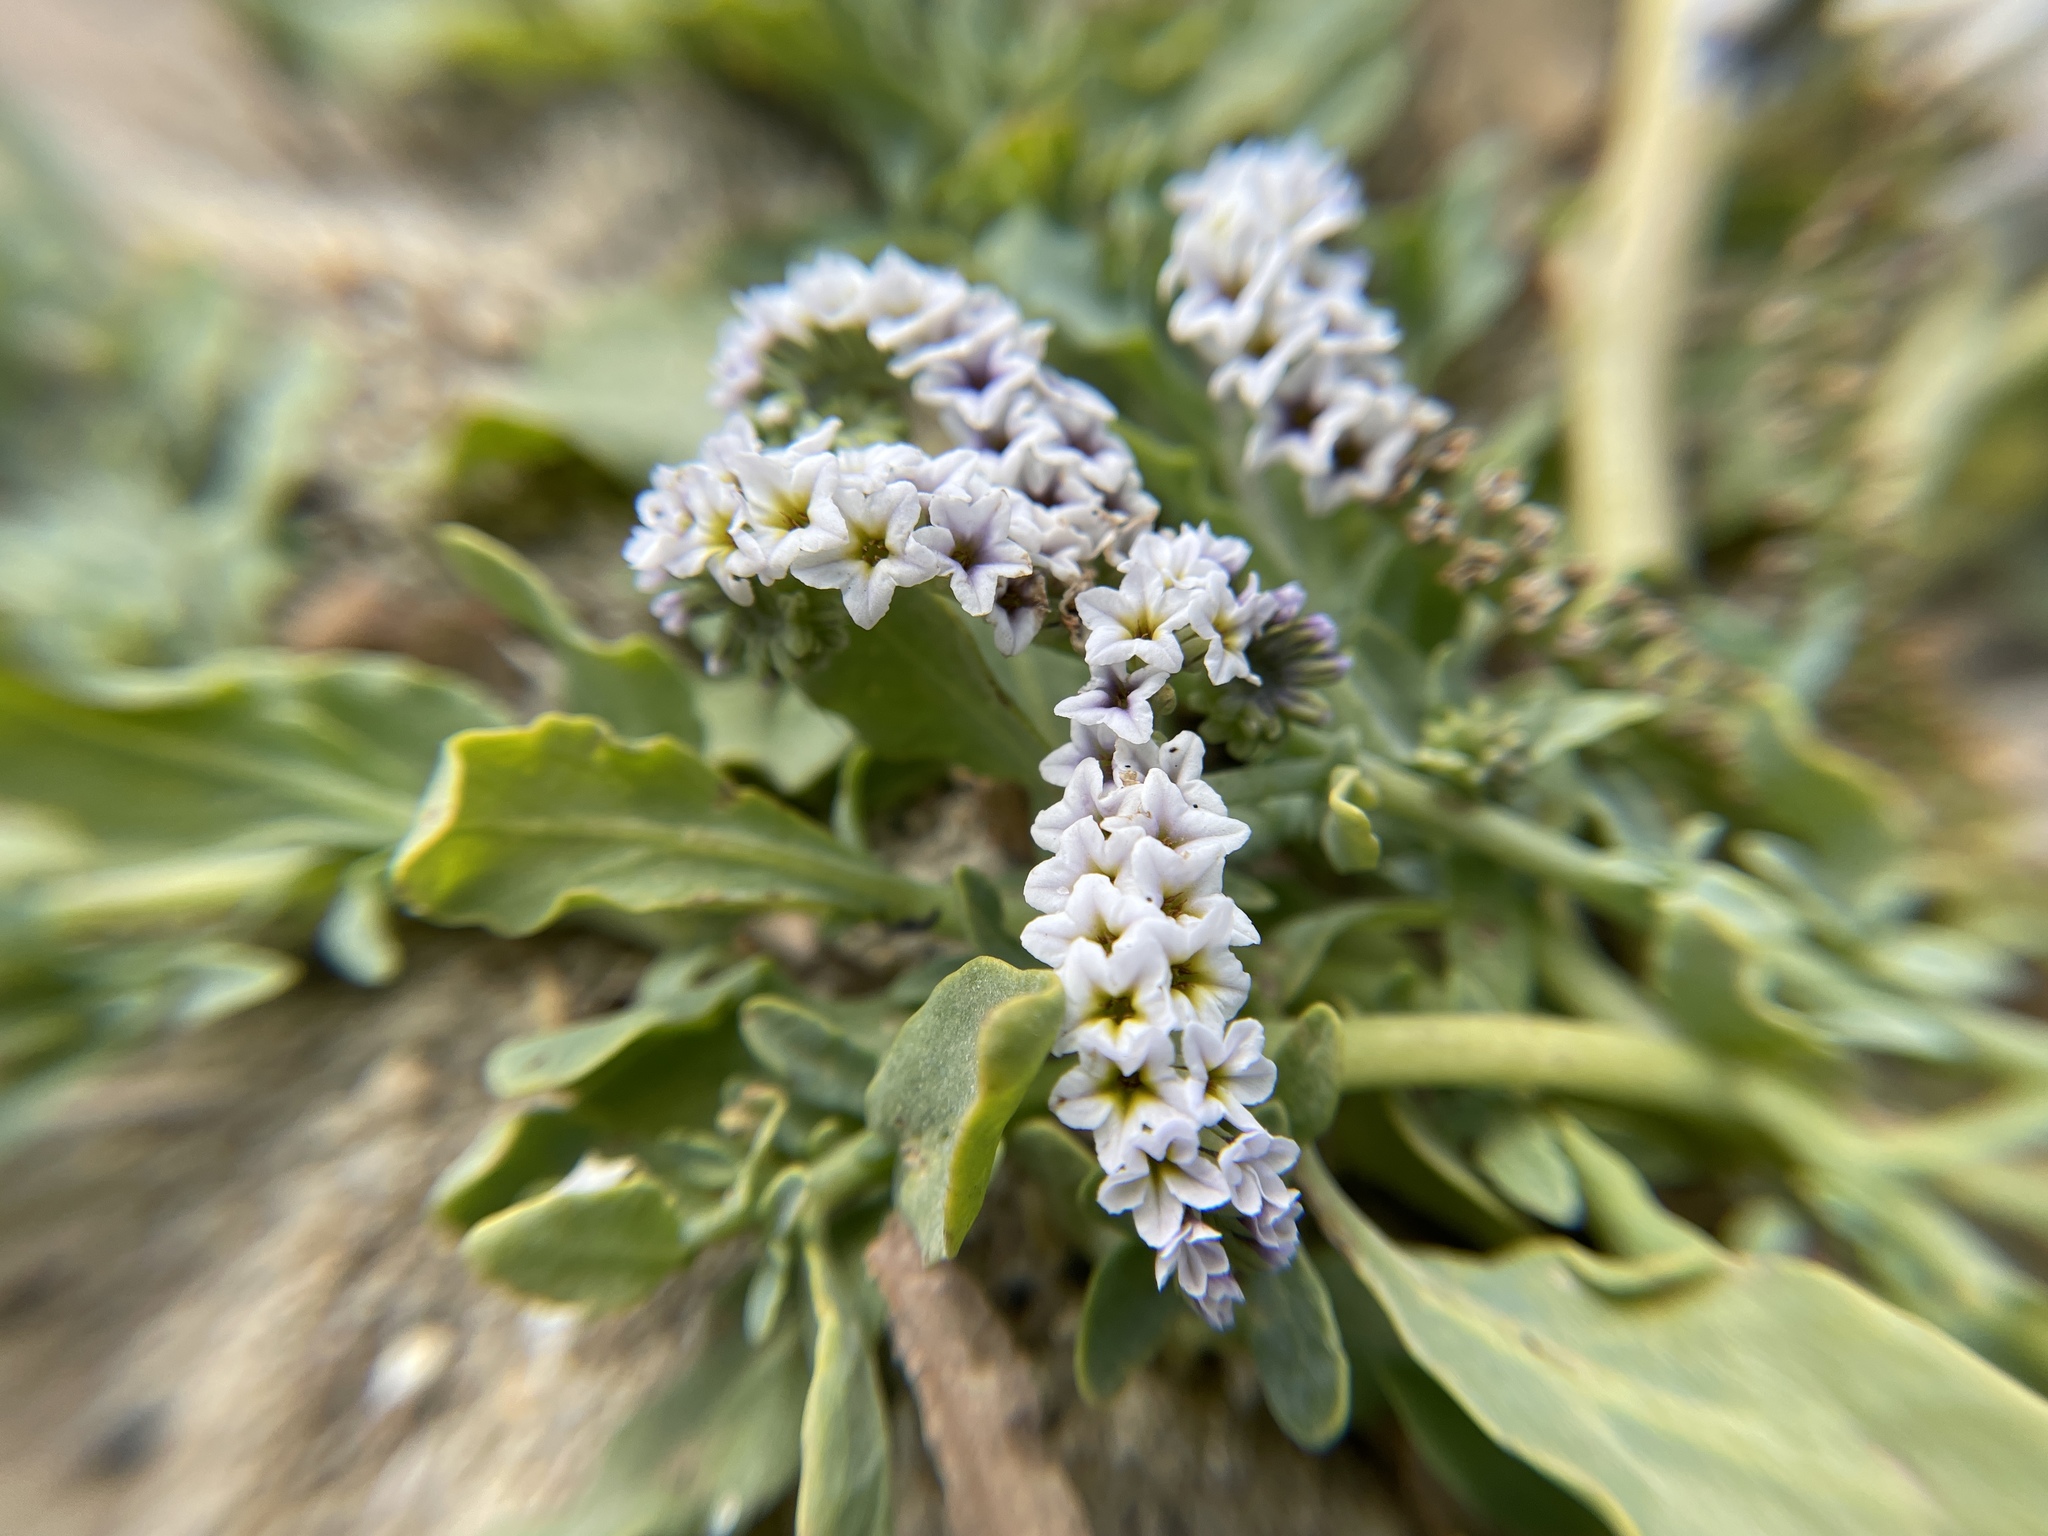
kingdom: Plantae
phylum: Tracheophyta
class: Magnoliopsida
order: Boraginales
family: Heliotropiaceae
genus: Heliotropium
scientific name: Heliotropium curassavicum
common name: Seaside heliotrope
